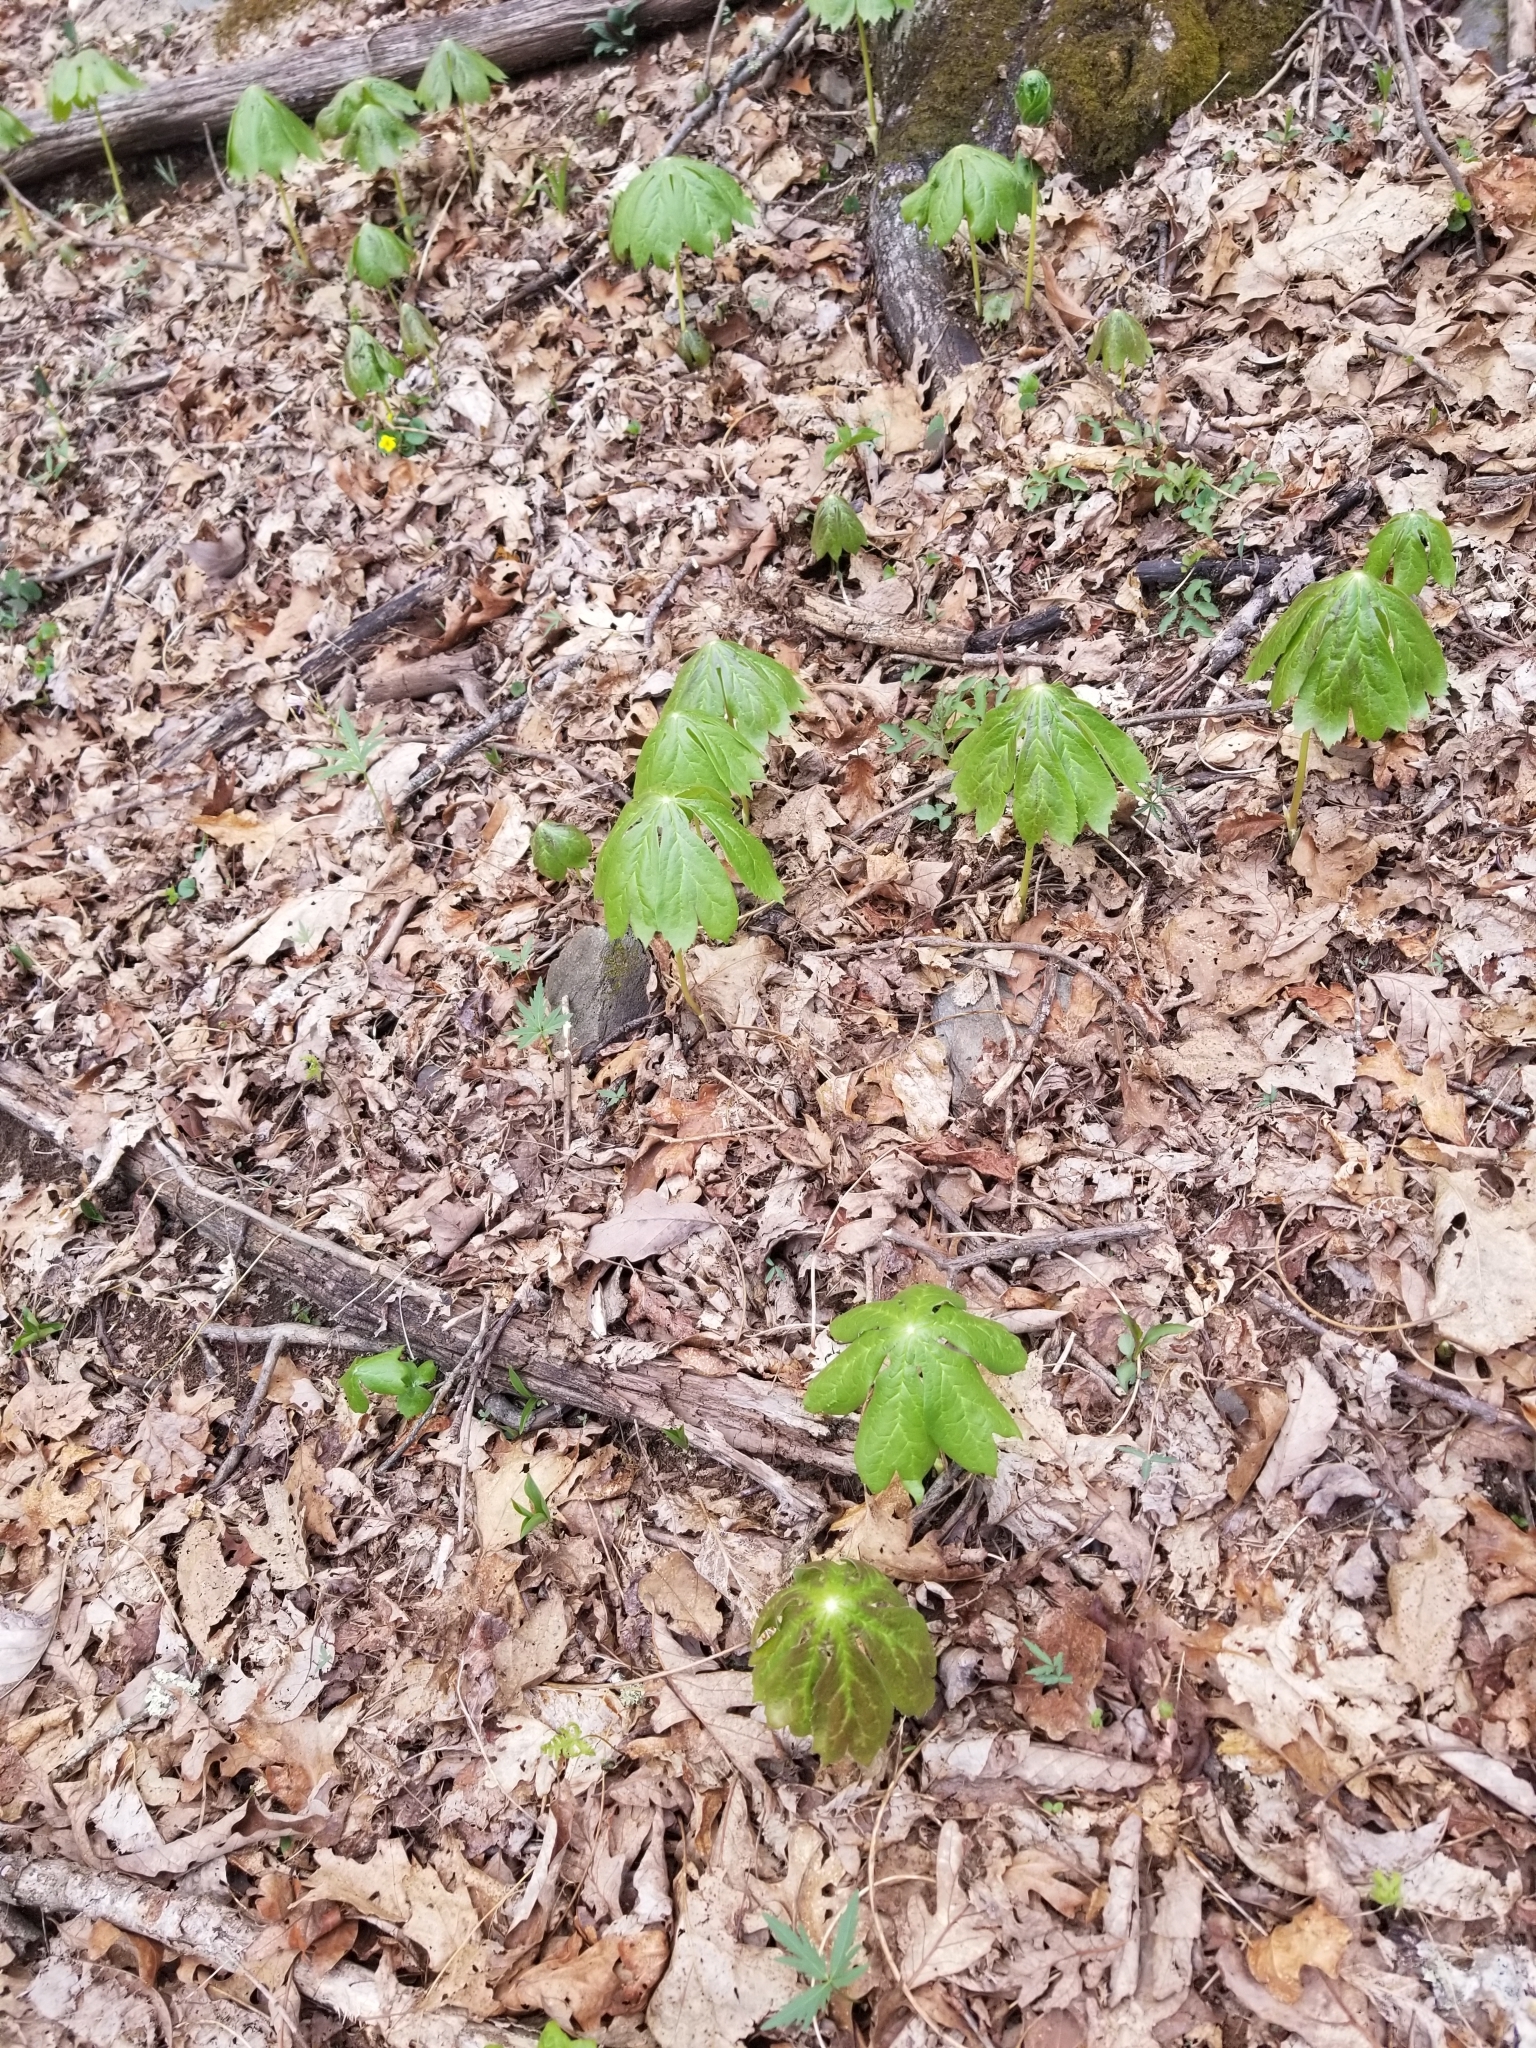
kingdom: Plantae
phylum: Tracheophyta
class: Magnoliopsida
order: Ranunculales
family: Berberidaceae
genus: Podophyllum
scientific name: Podophyllum peltatum
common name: Wild mandrake
